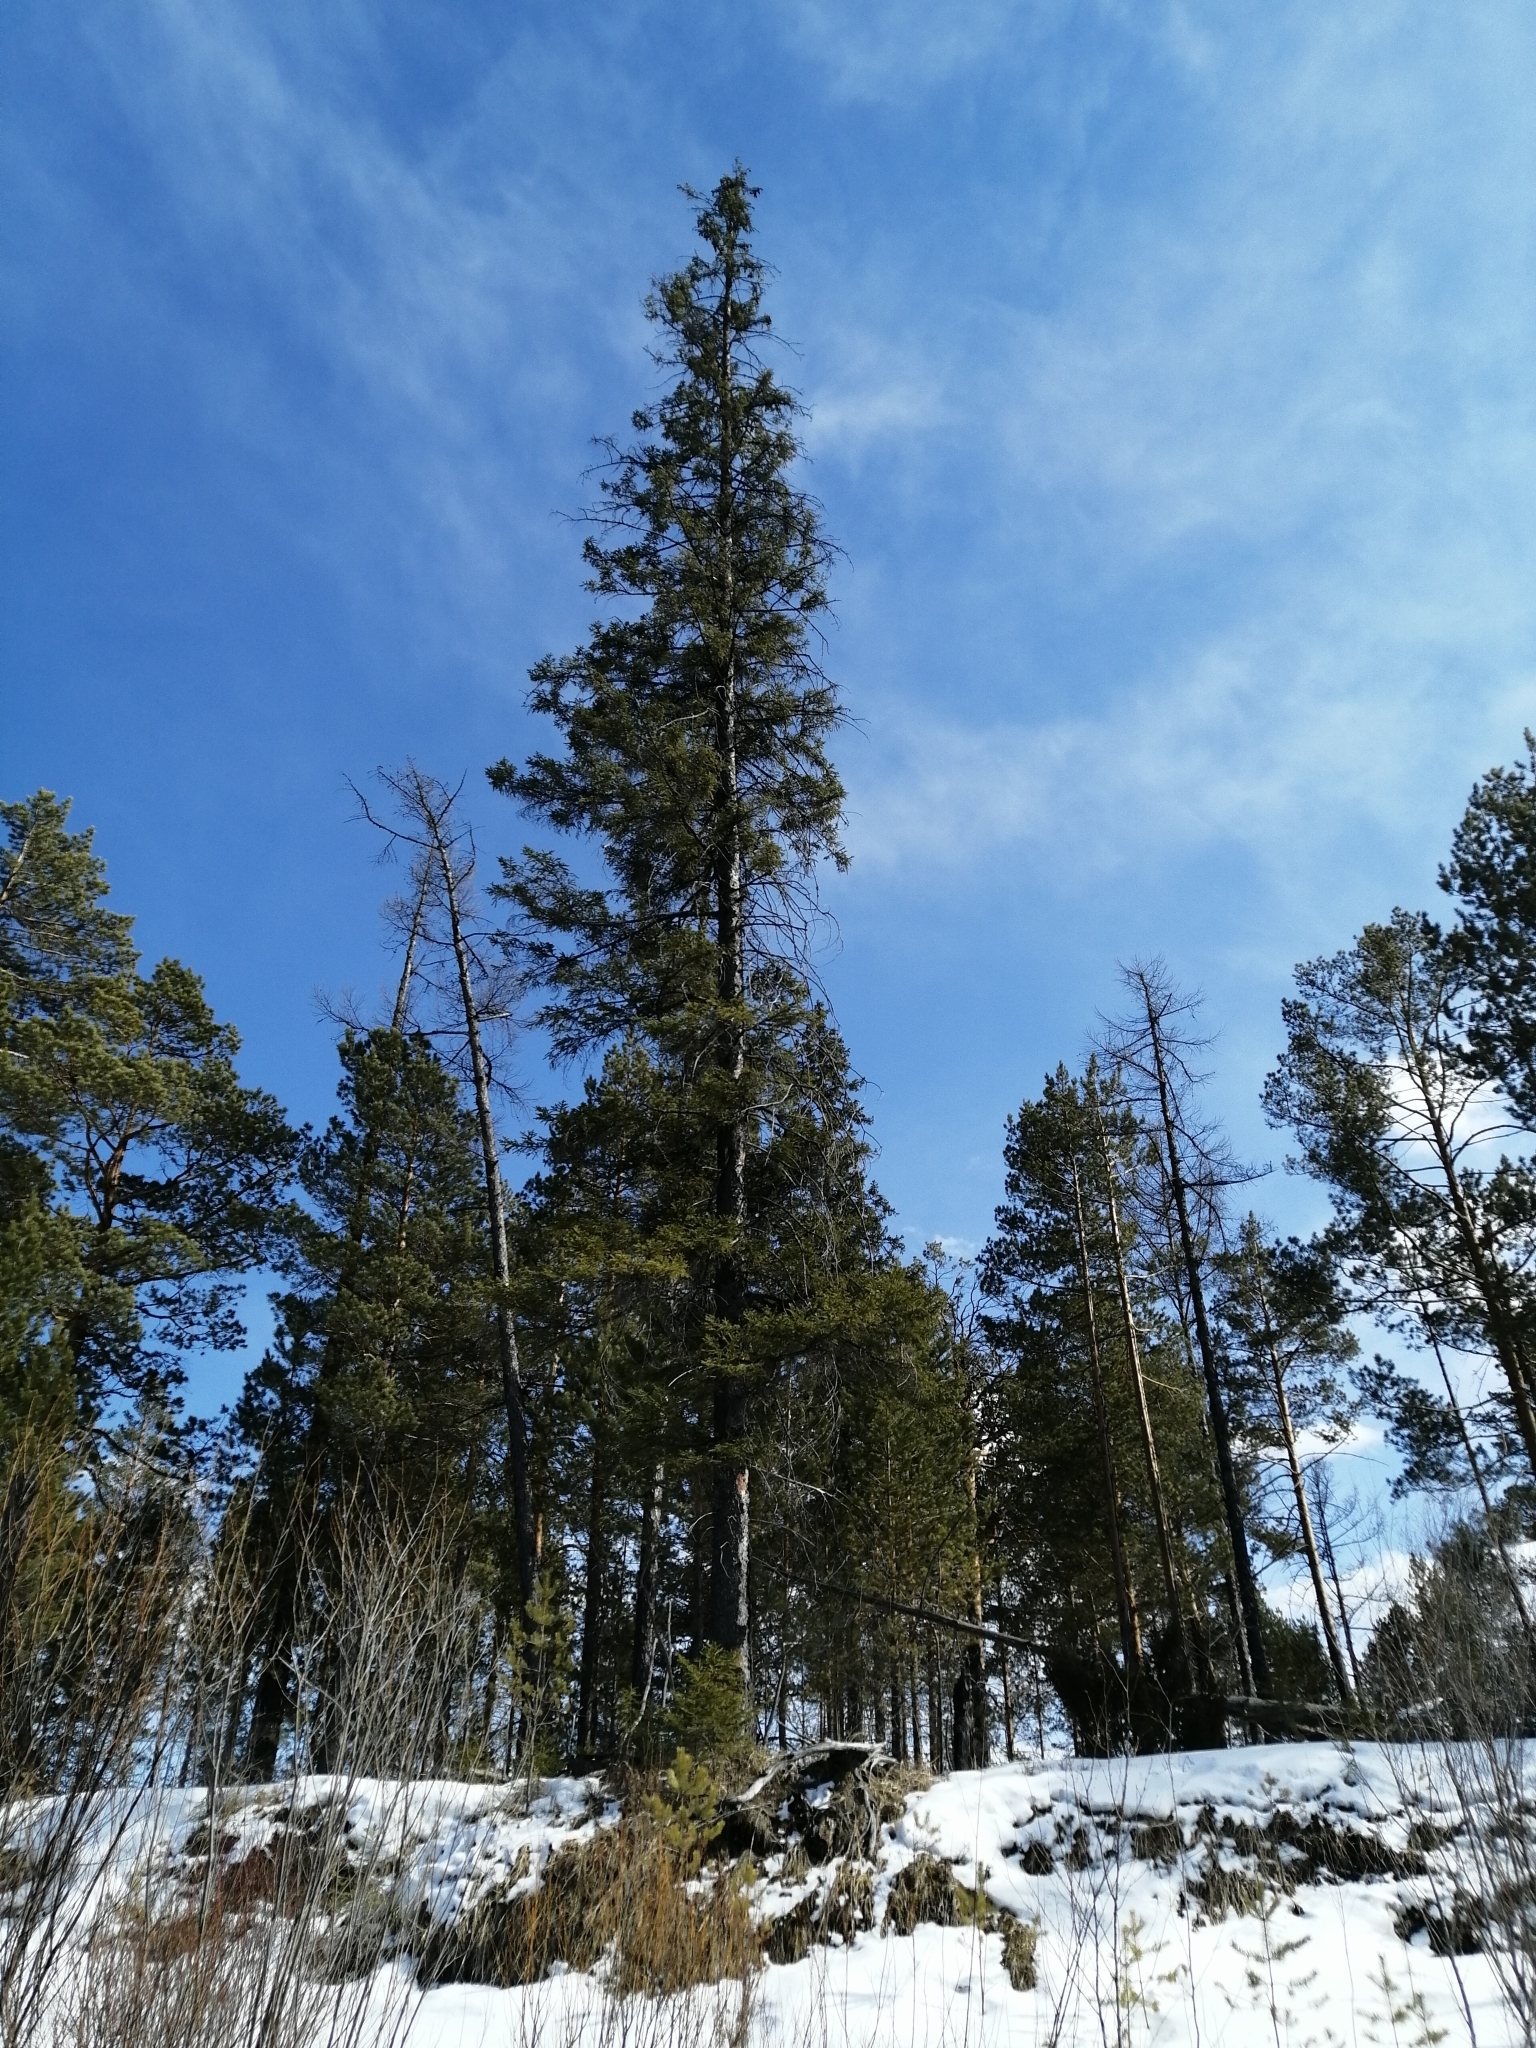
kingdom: Plantae
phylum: Tracheophyta
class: Pinopsida
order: Pinales
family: Pinaceae
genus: Picea
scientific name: Picea obovata
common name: Siberian spruce
